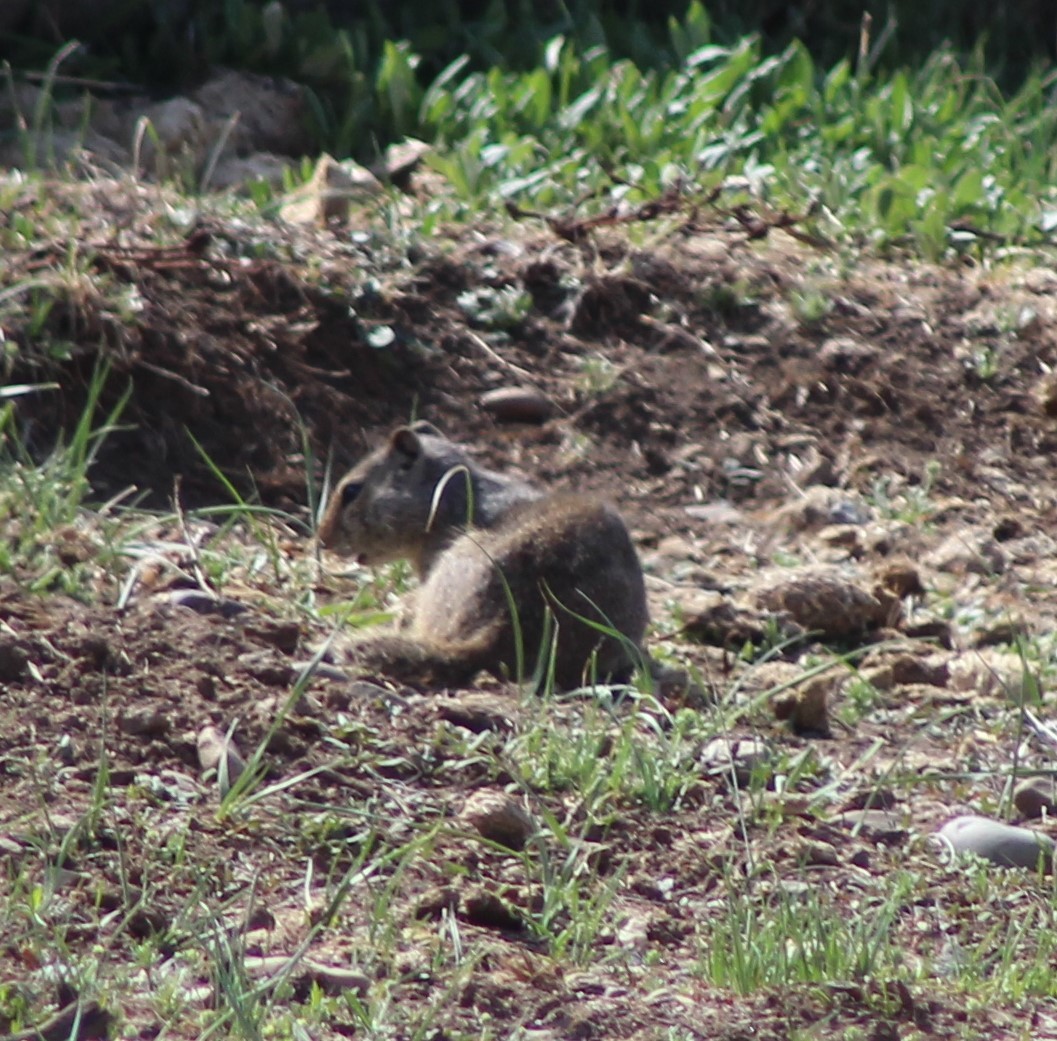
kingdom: Animalia
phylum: Chordata
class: Mammalia
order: Rodentia
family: Sciuridae
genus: Urocitellus
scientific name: Urocitellus armatus
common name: Uinta ground squirrel
